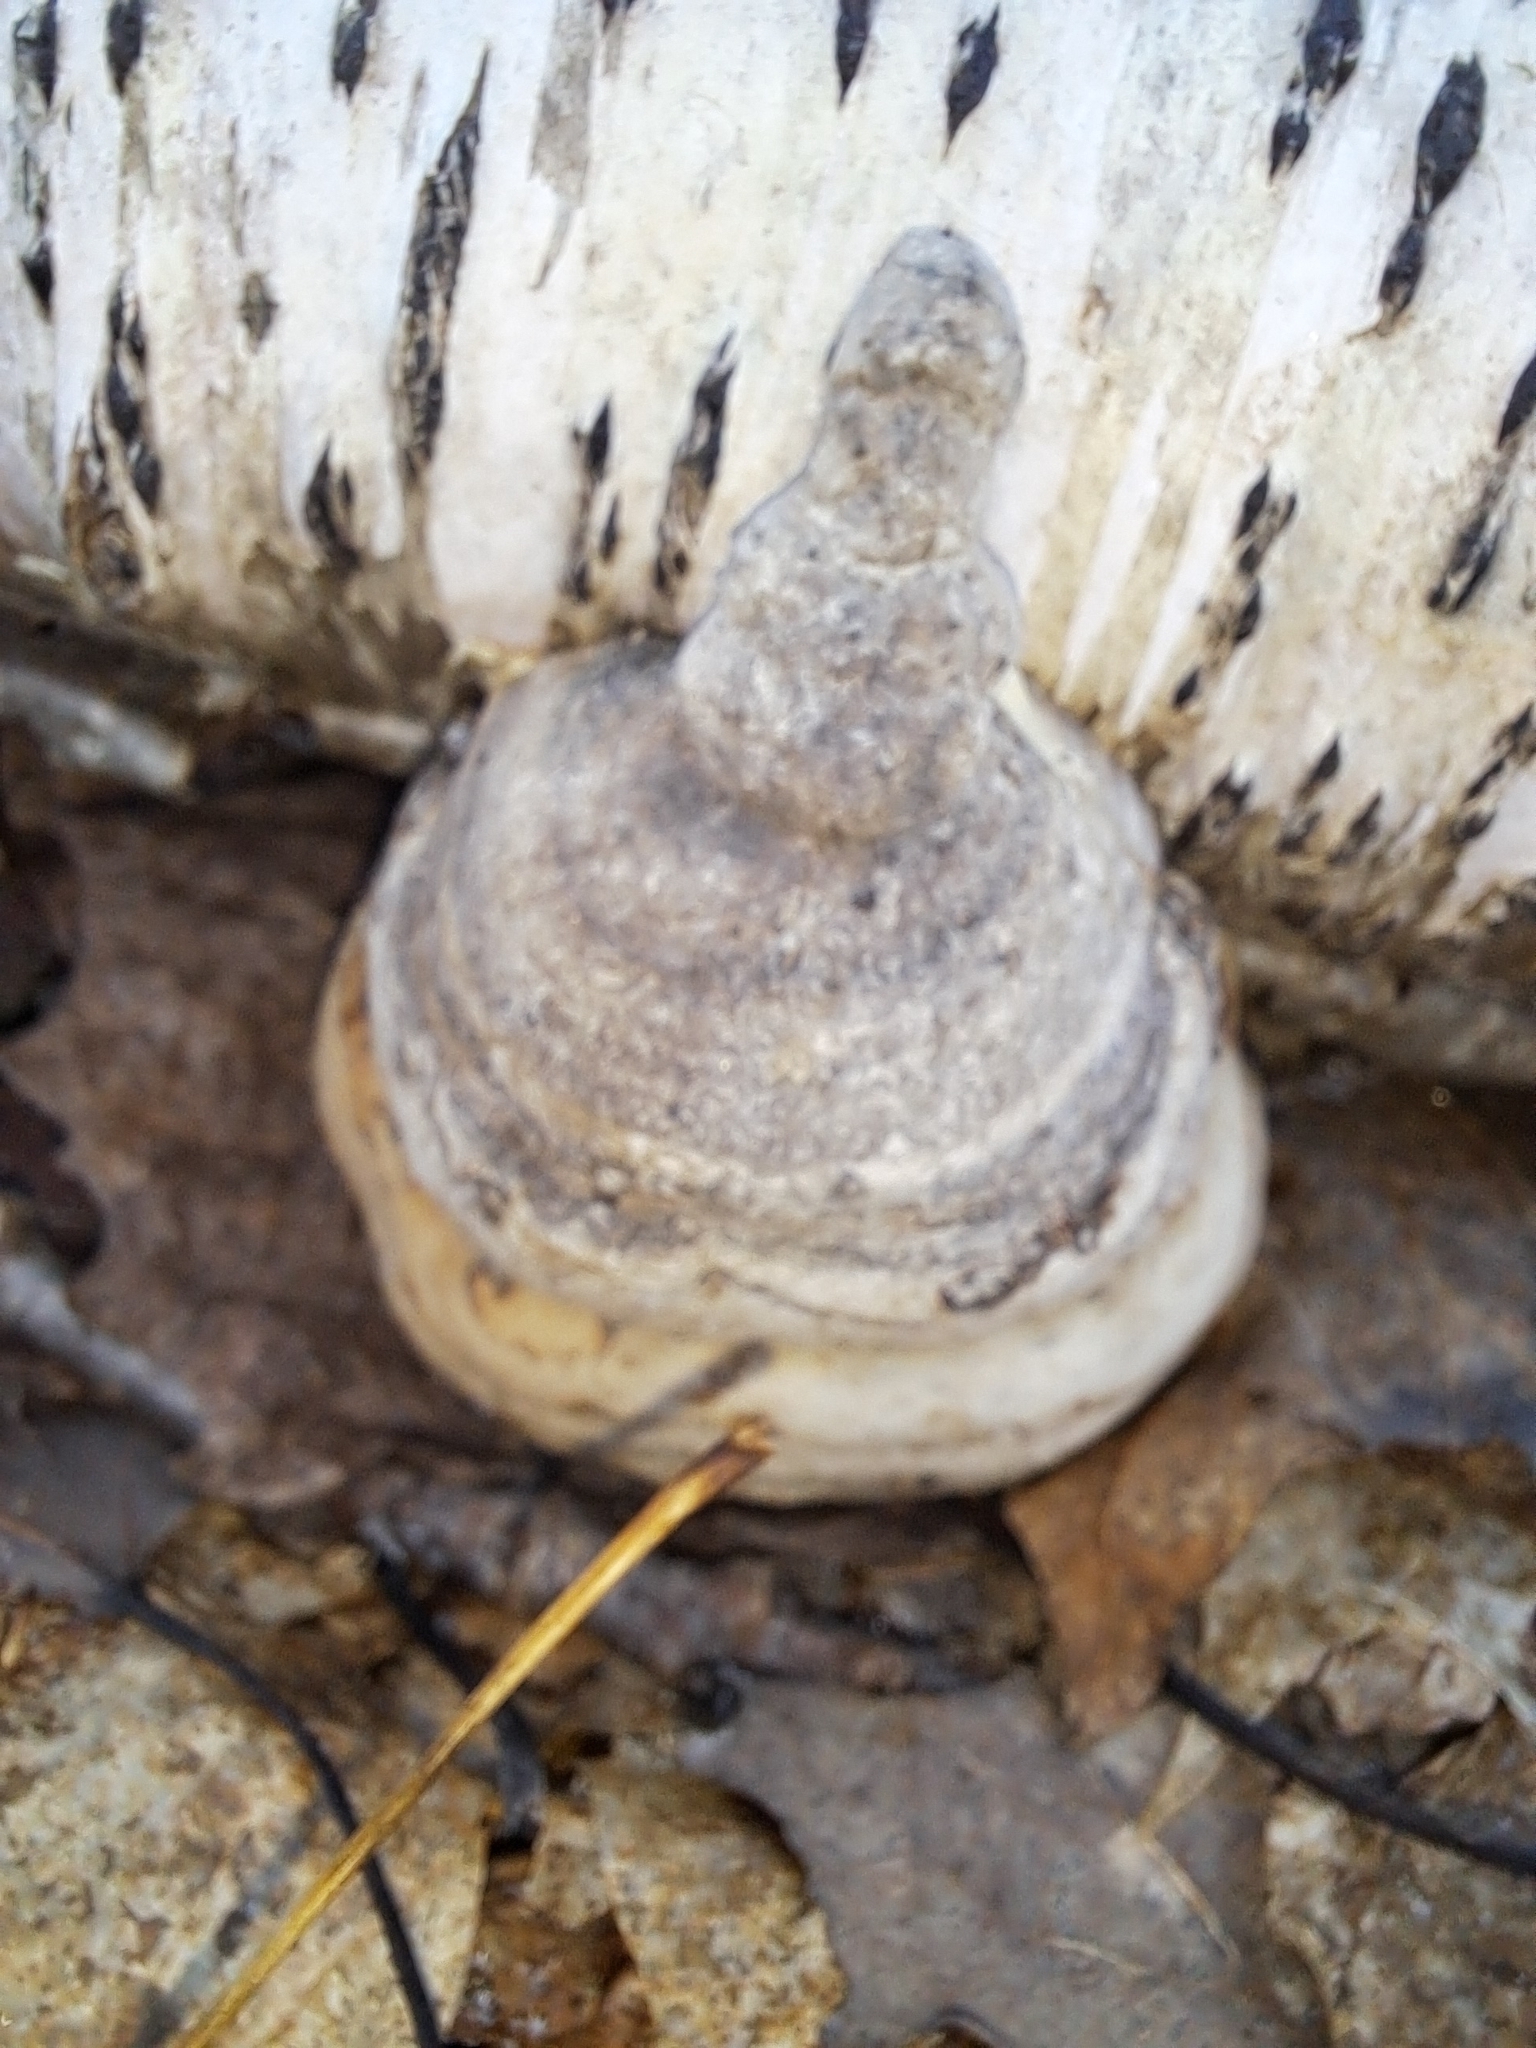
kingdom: Fungi
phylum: Basidiomycota
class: Agaricomycetes
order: Polyporales
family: Polyporaceae
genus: Fomes
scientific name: Fomes fomentarius
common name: Hoof fungus
